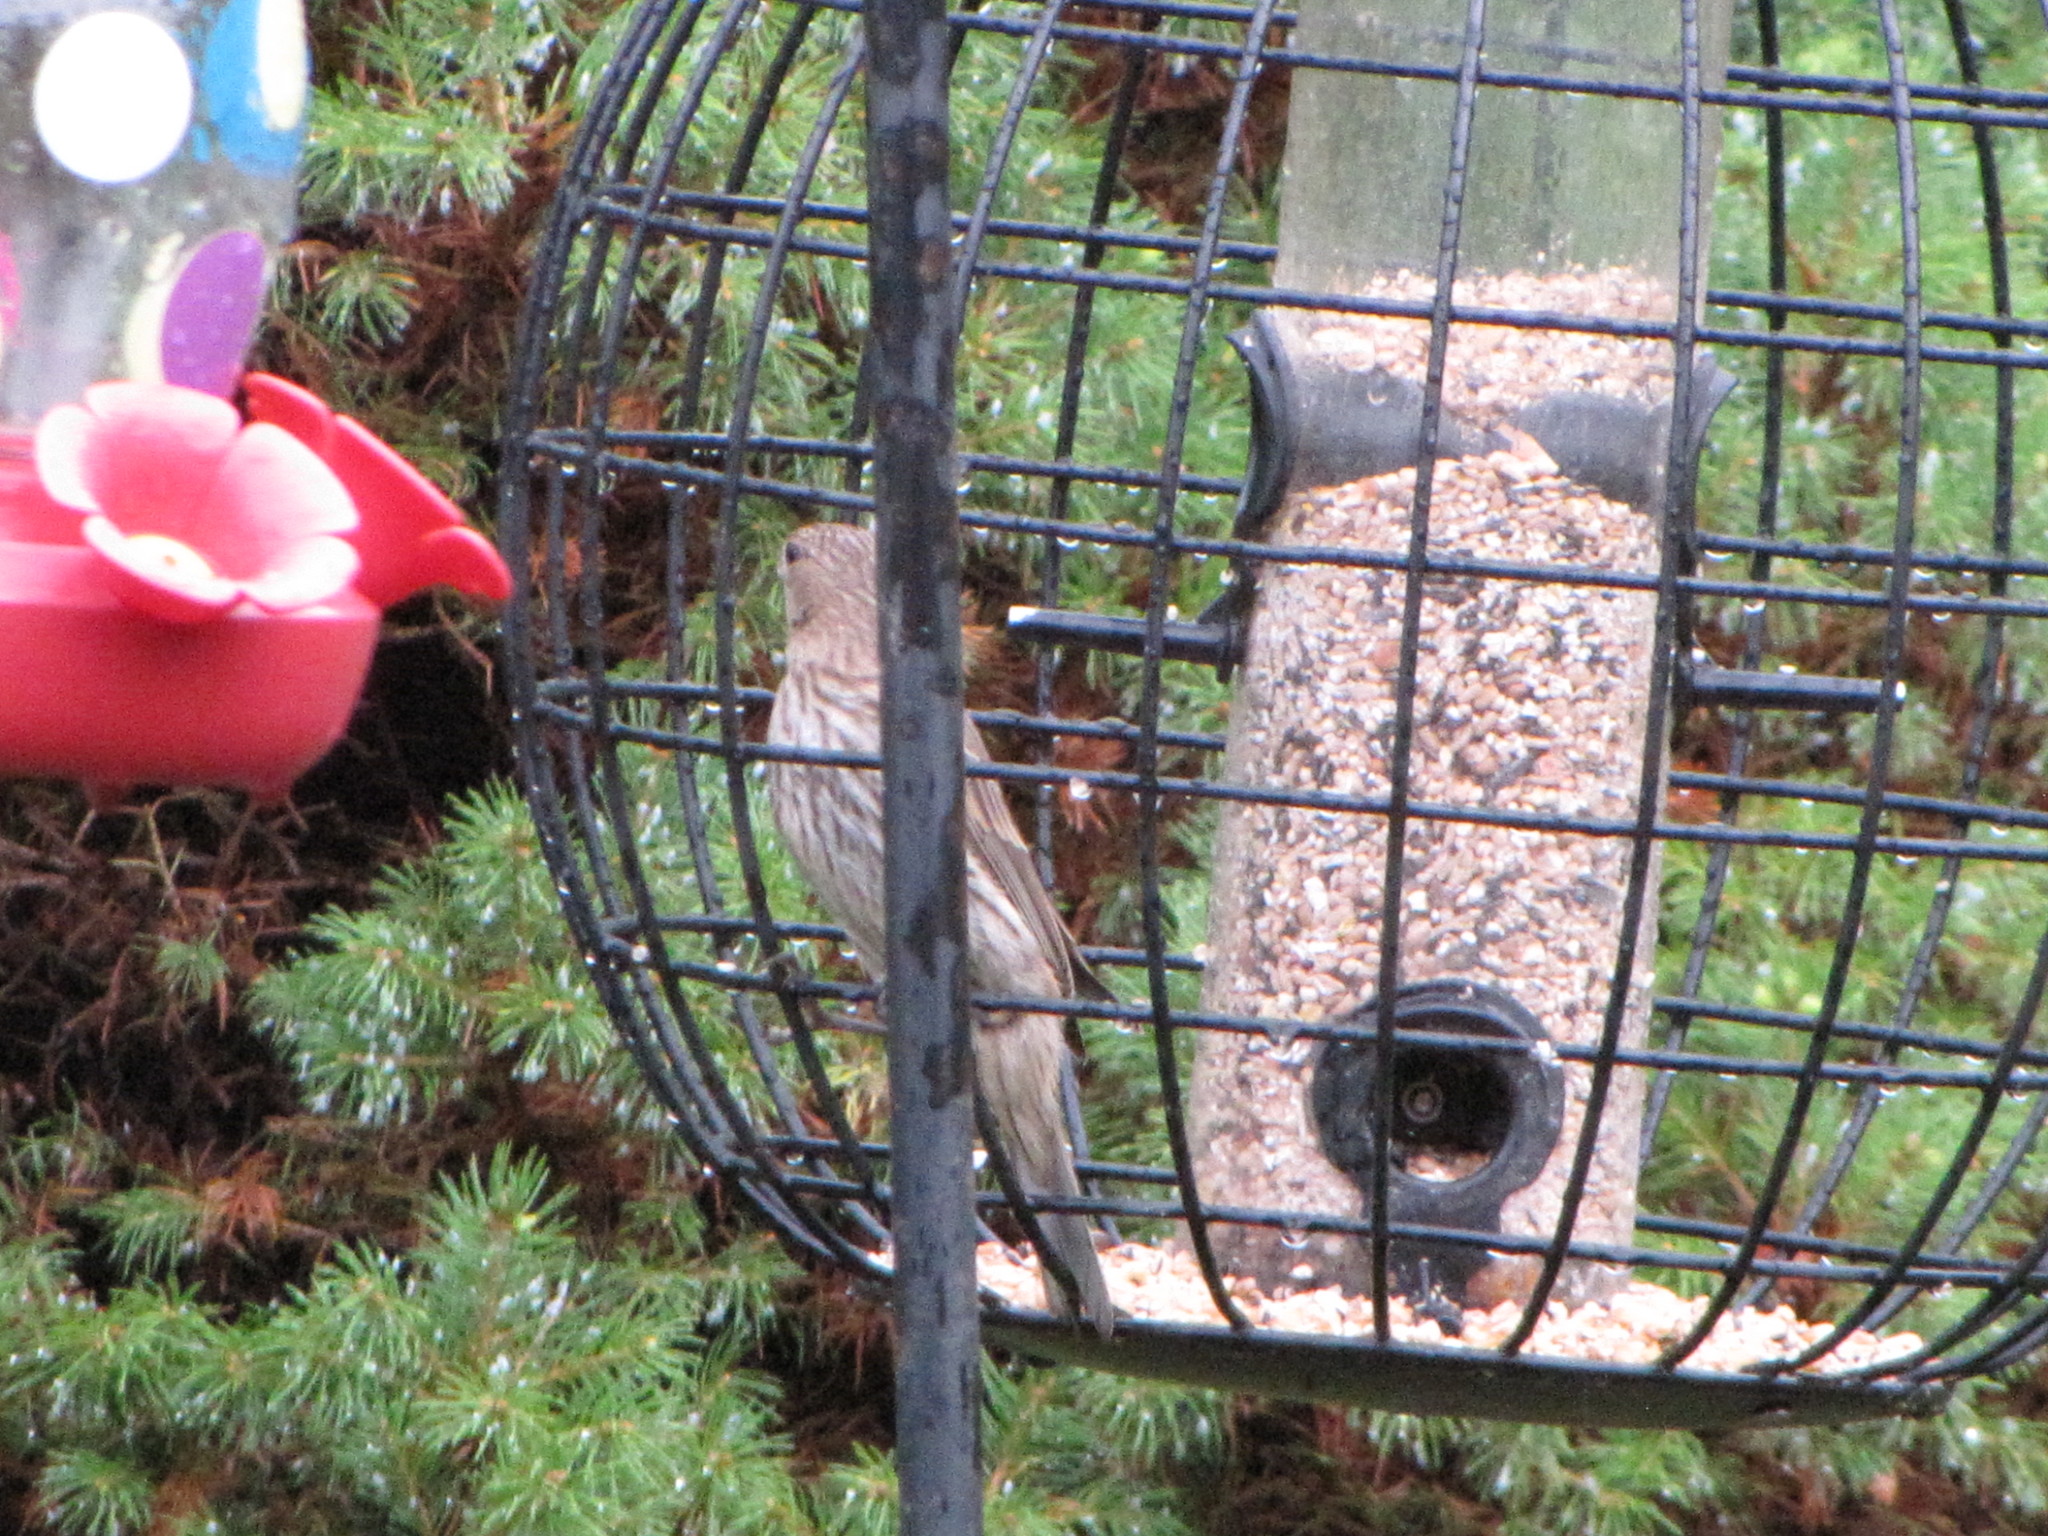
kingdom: Animalia
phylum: Chordata
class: Aves
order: Passeriformes
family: Fringillidae
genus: Haemorhous
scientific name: Haemorhous mexicanus
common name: House finch
